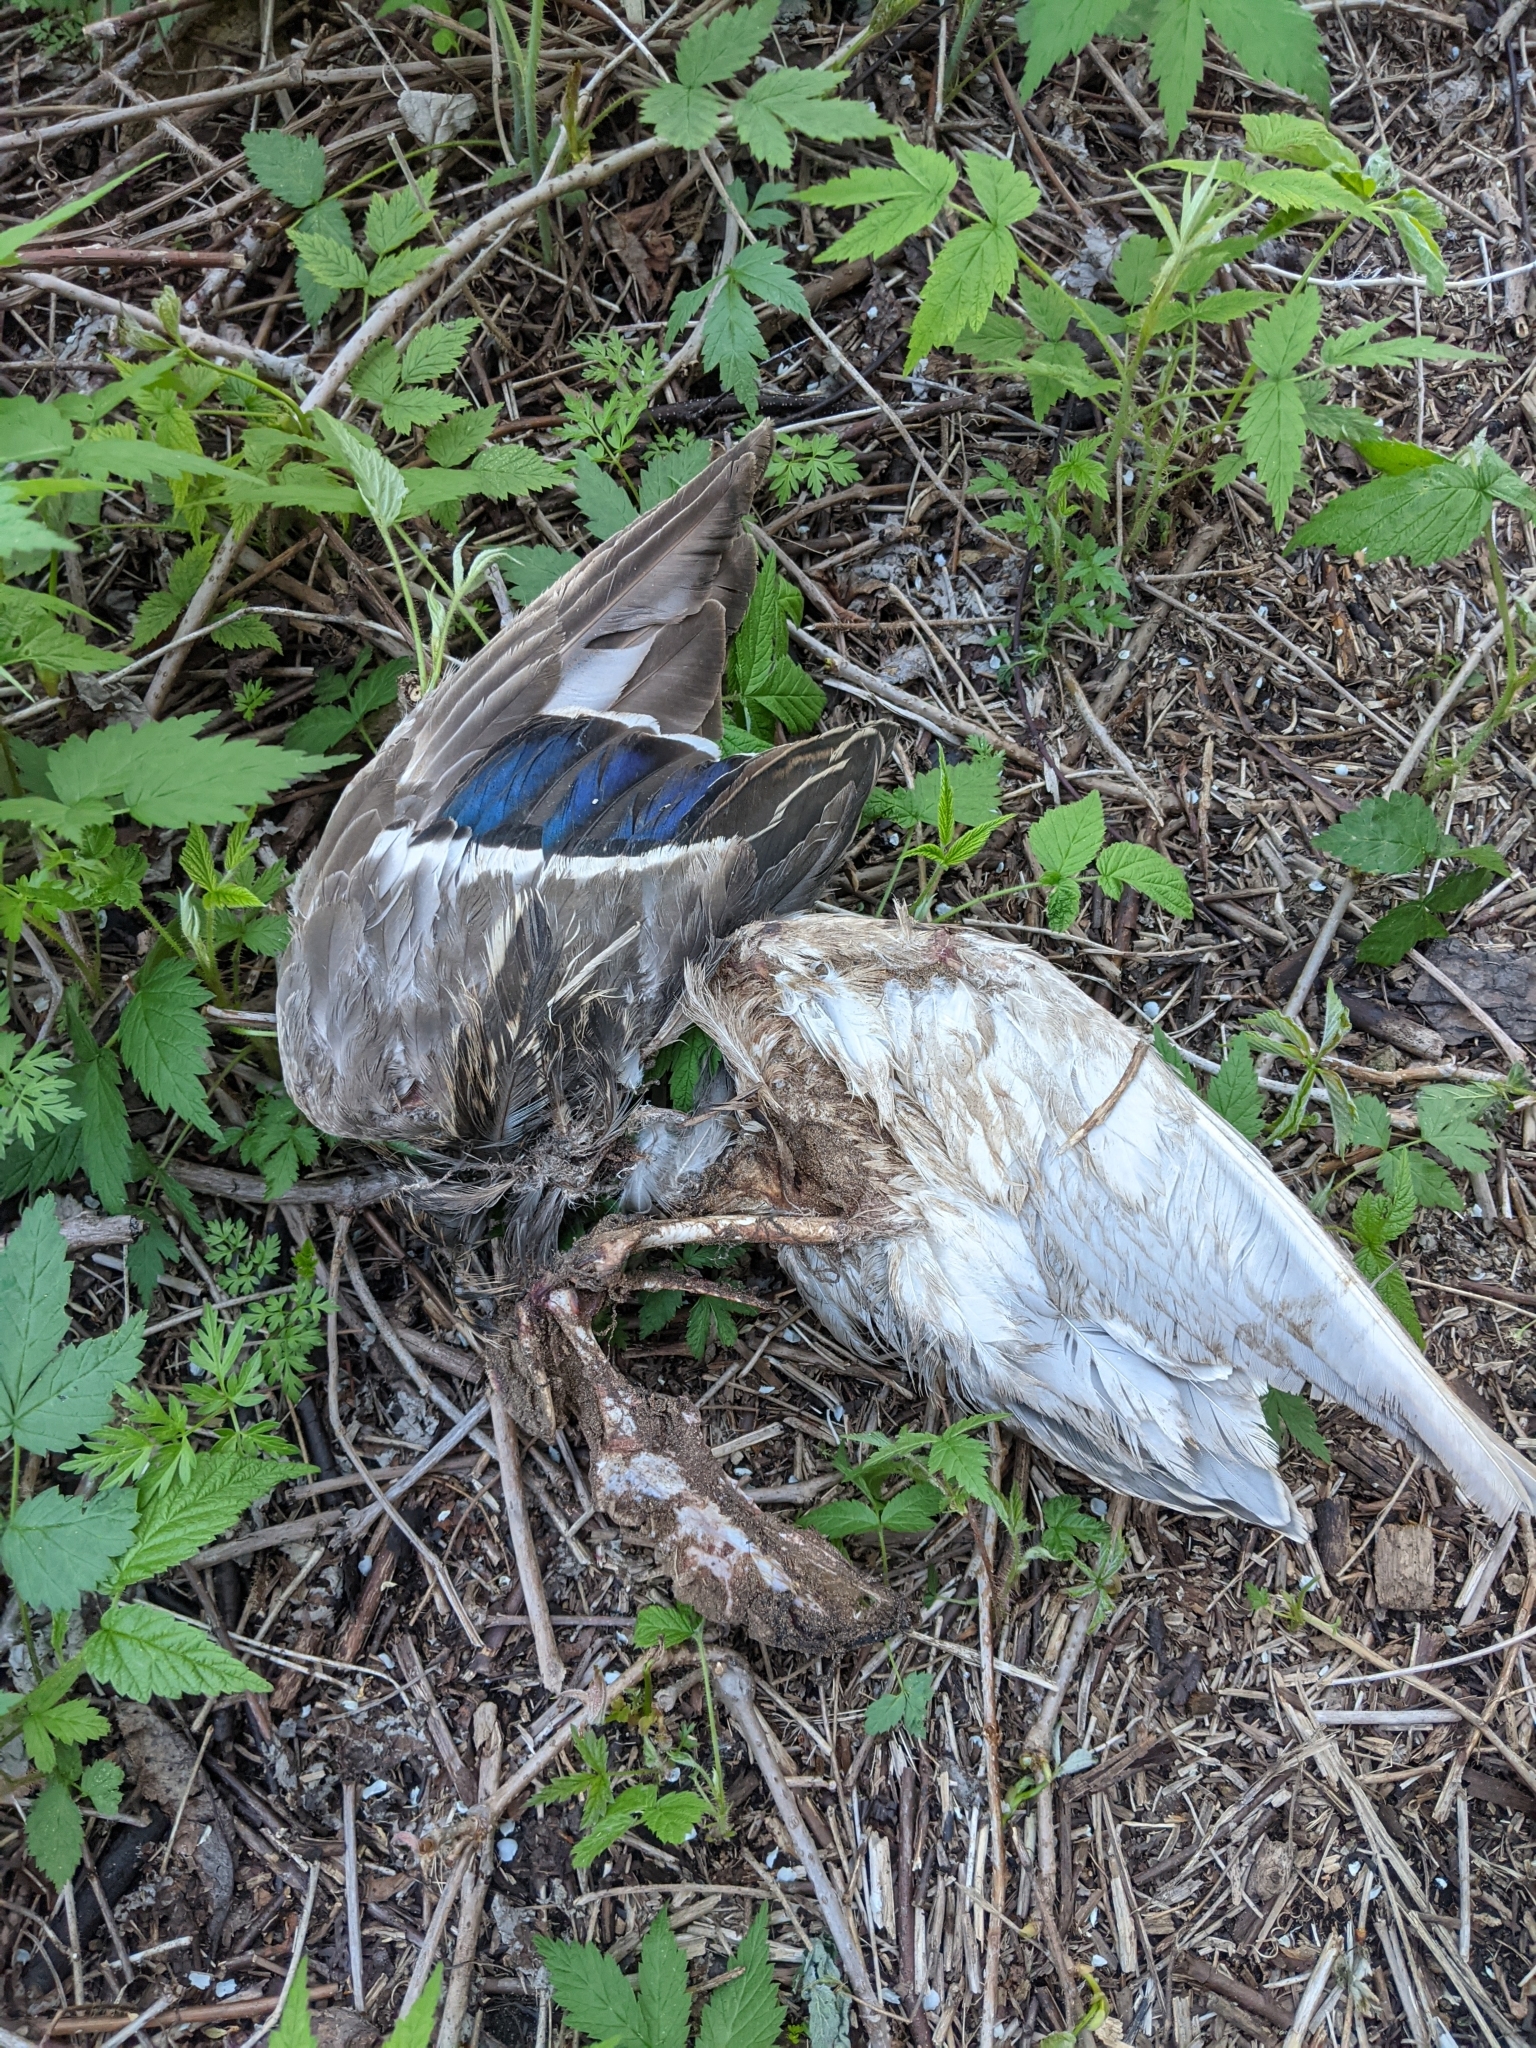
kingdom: Animalia
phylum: Chordata
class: Aves
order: Anseriformes
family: Anatidae
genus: Anas
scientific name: Anas platyrhynchos
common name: Mallard
